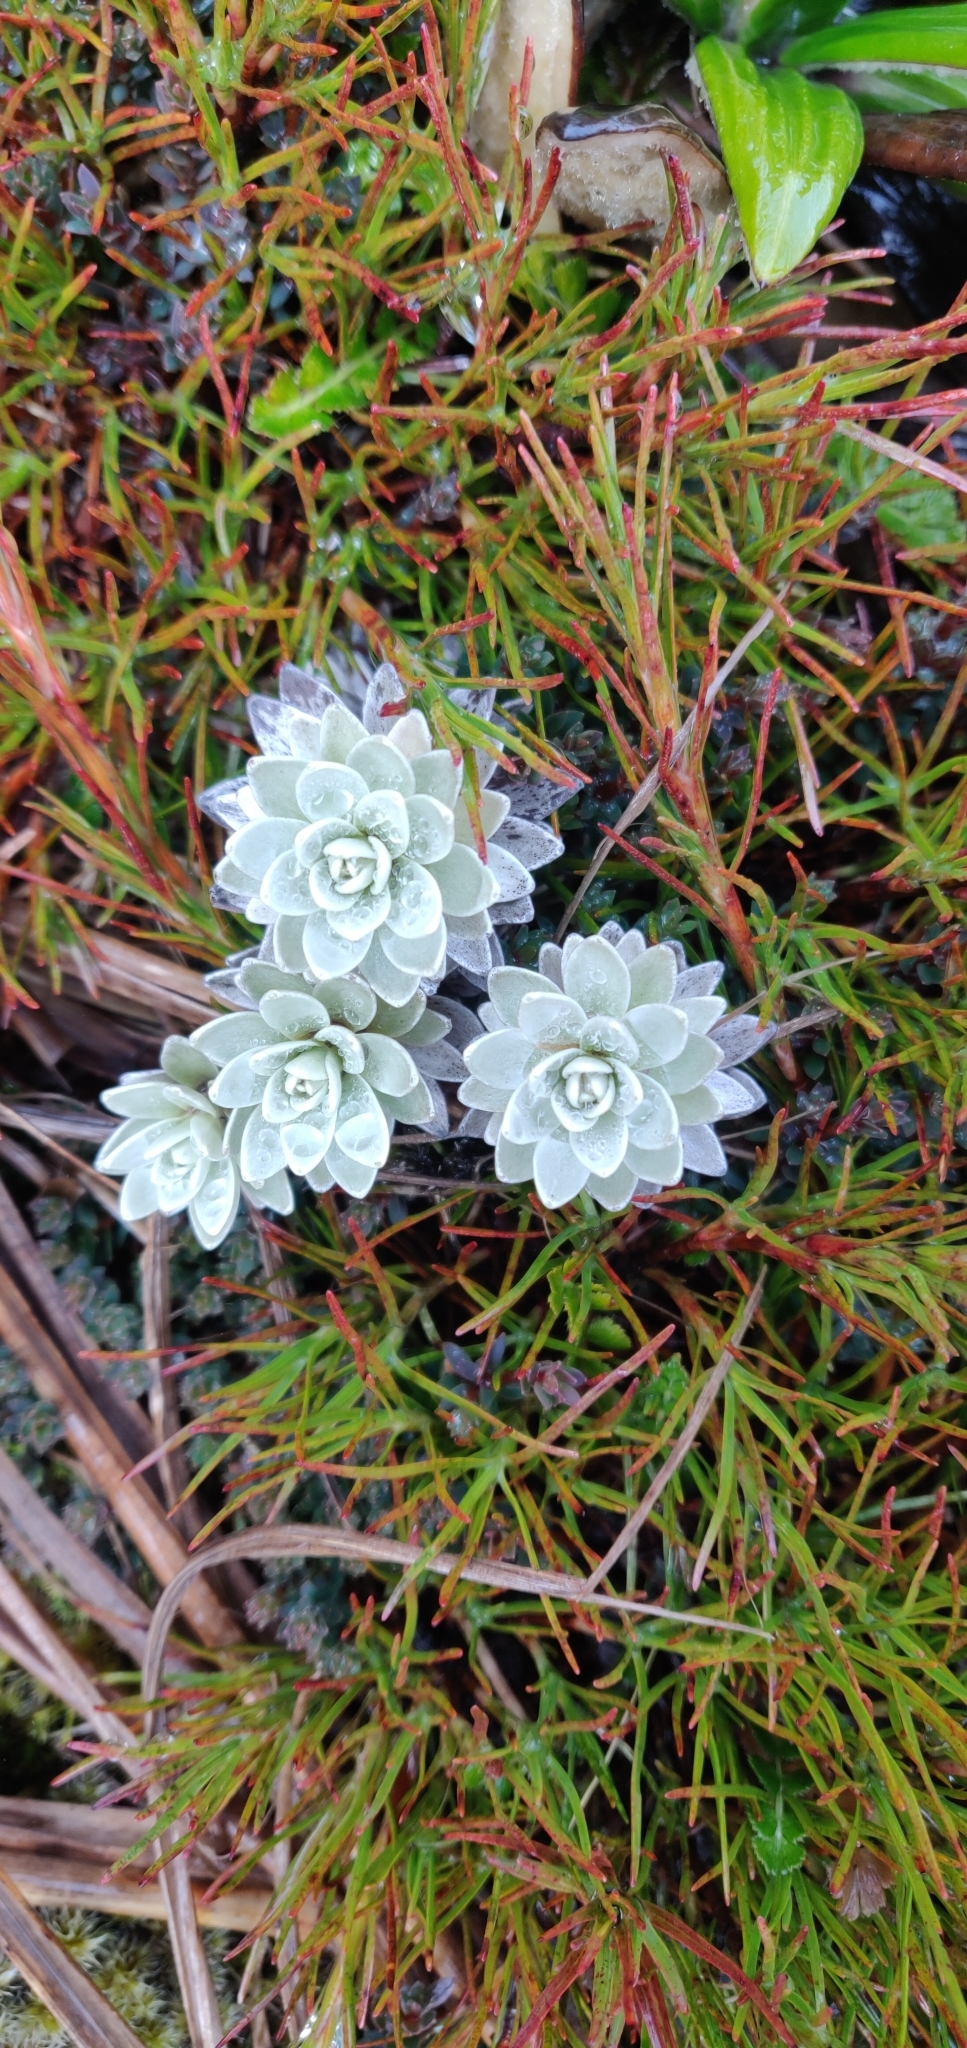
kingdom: Plantae
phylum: Tracheophyta
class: Magnoliopsida
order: Asterales
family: Asteraceae
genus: Leucogenes
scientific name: Leucogenes leontopodium
